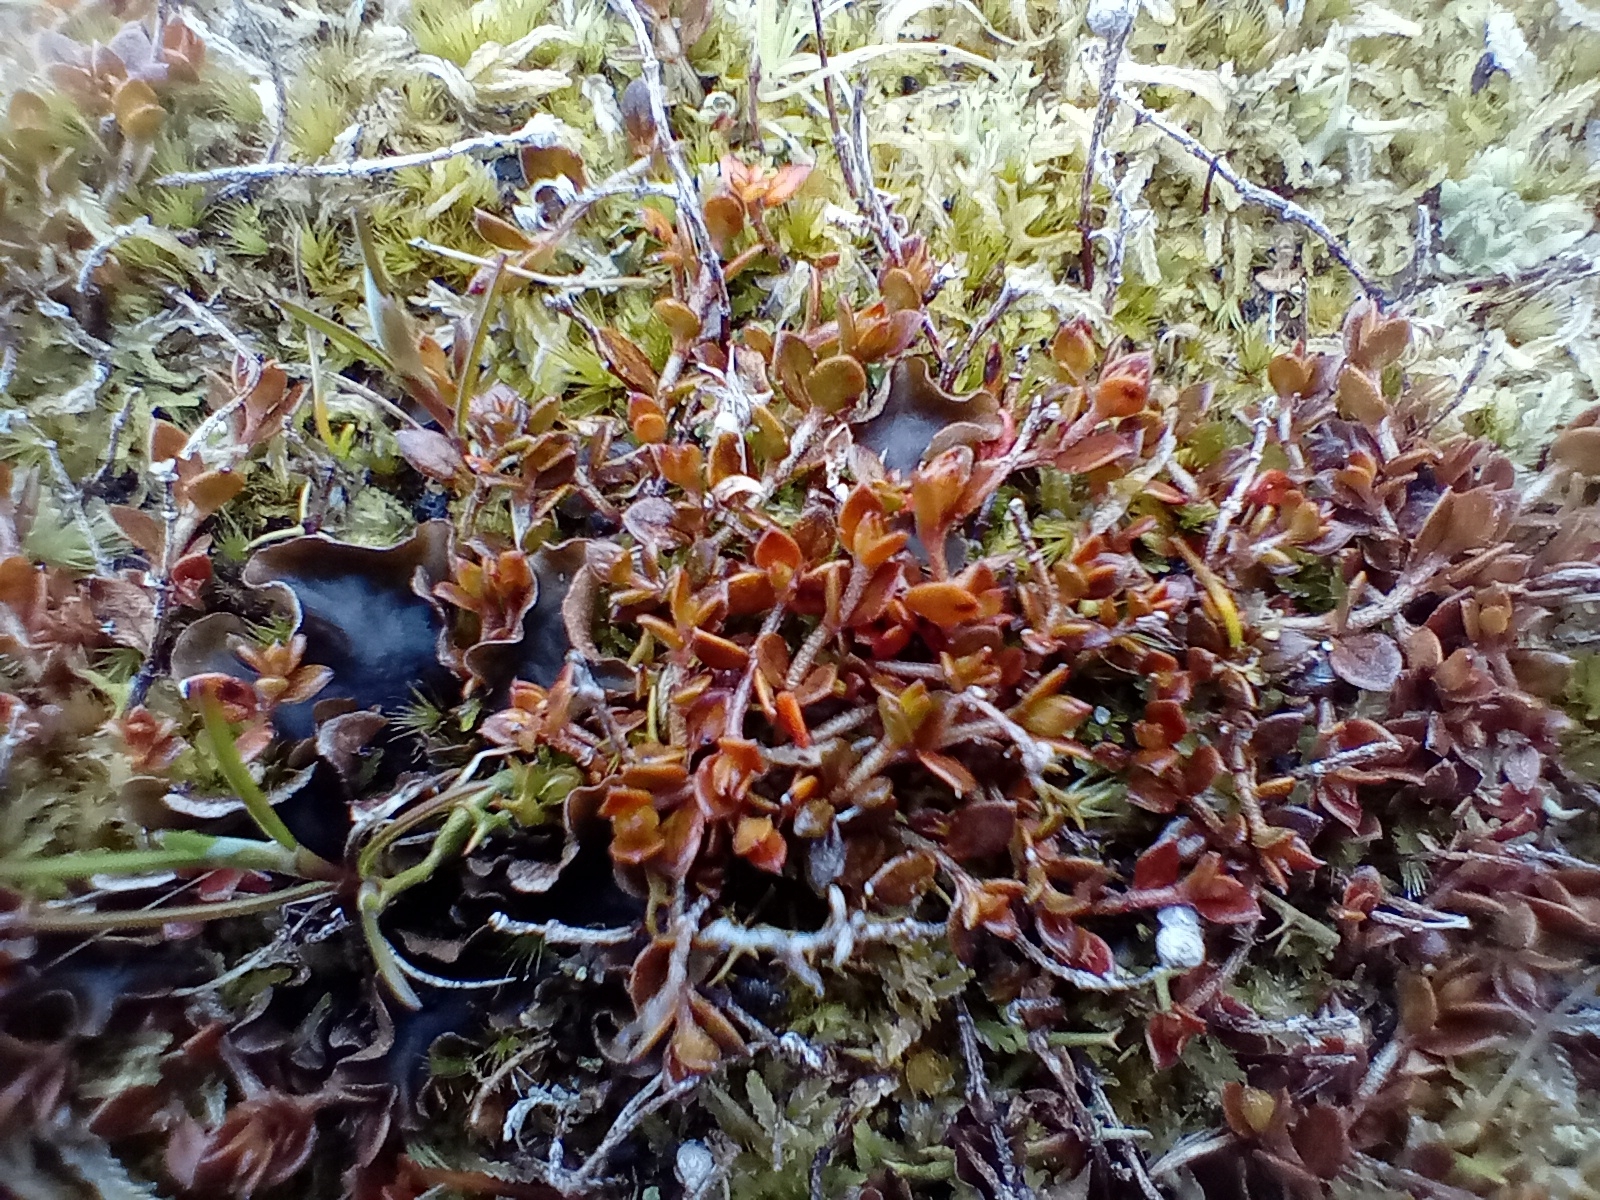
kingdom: Plantae
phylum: Tracheophyta
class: Magnoliopsida
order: Saxifragales
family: Haloragaceae
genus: Gonocarpus
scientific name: Gonocarpus micranthus
